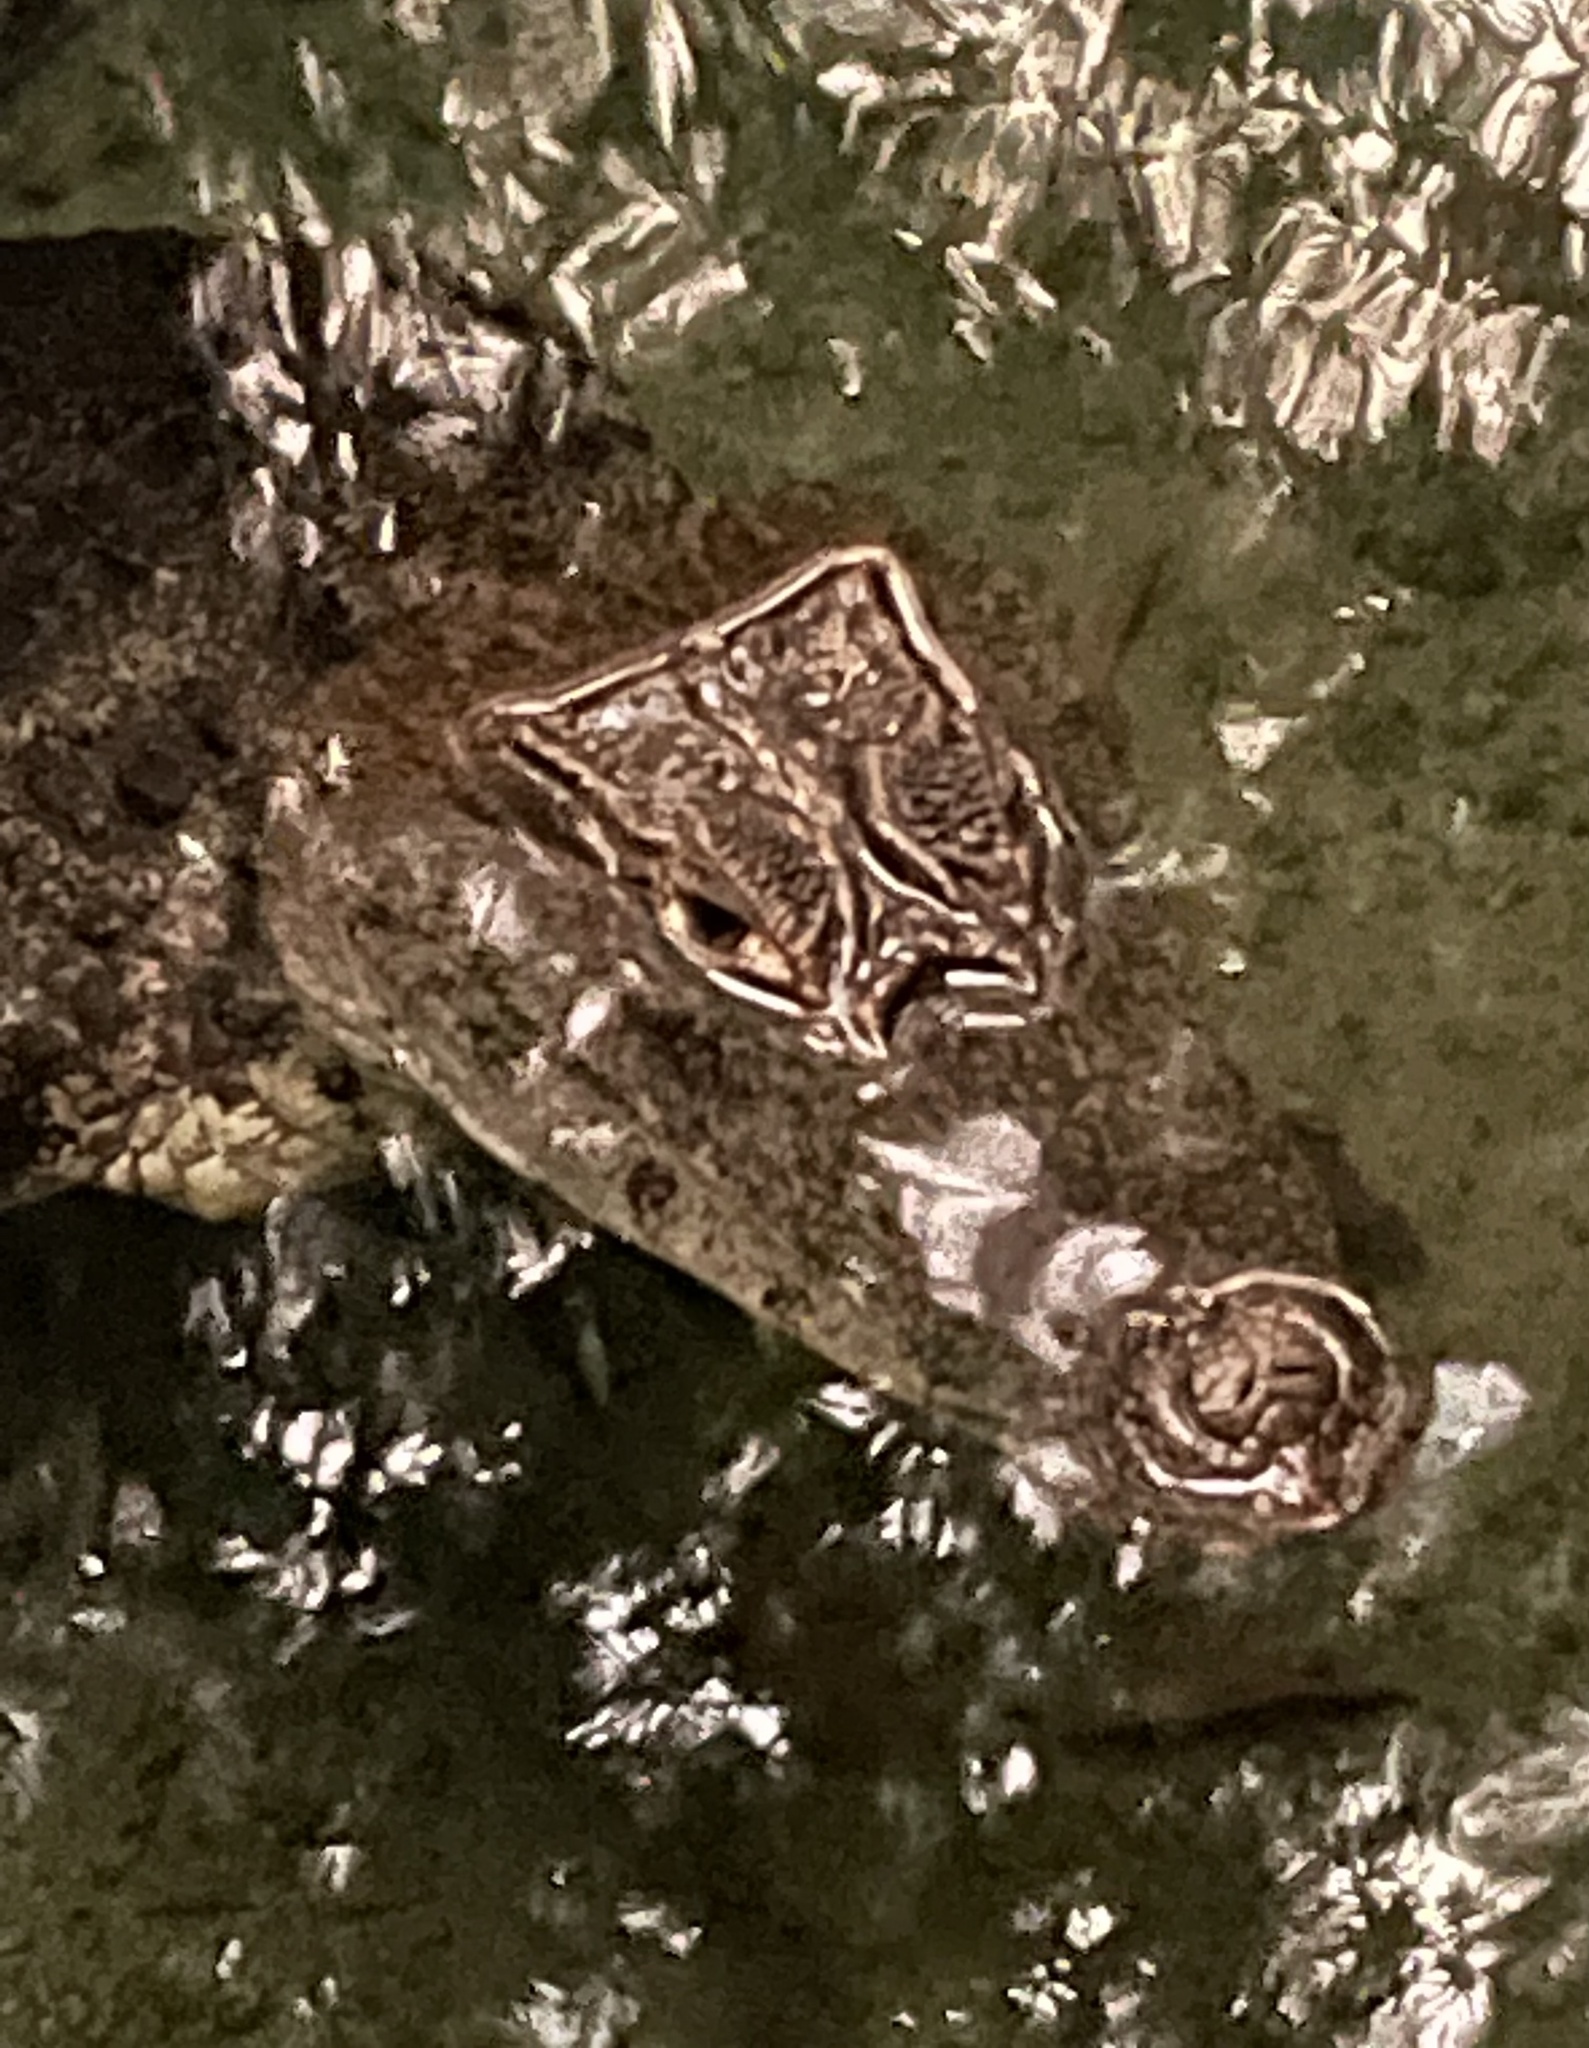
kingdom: Animalia
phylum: Chordata
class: Crocodylia
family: Alligatoridae
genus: Caiman
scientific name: Caiman crocodilus
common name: Common caiman
